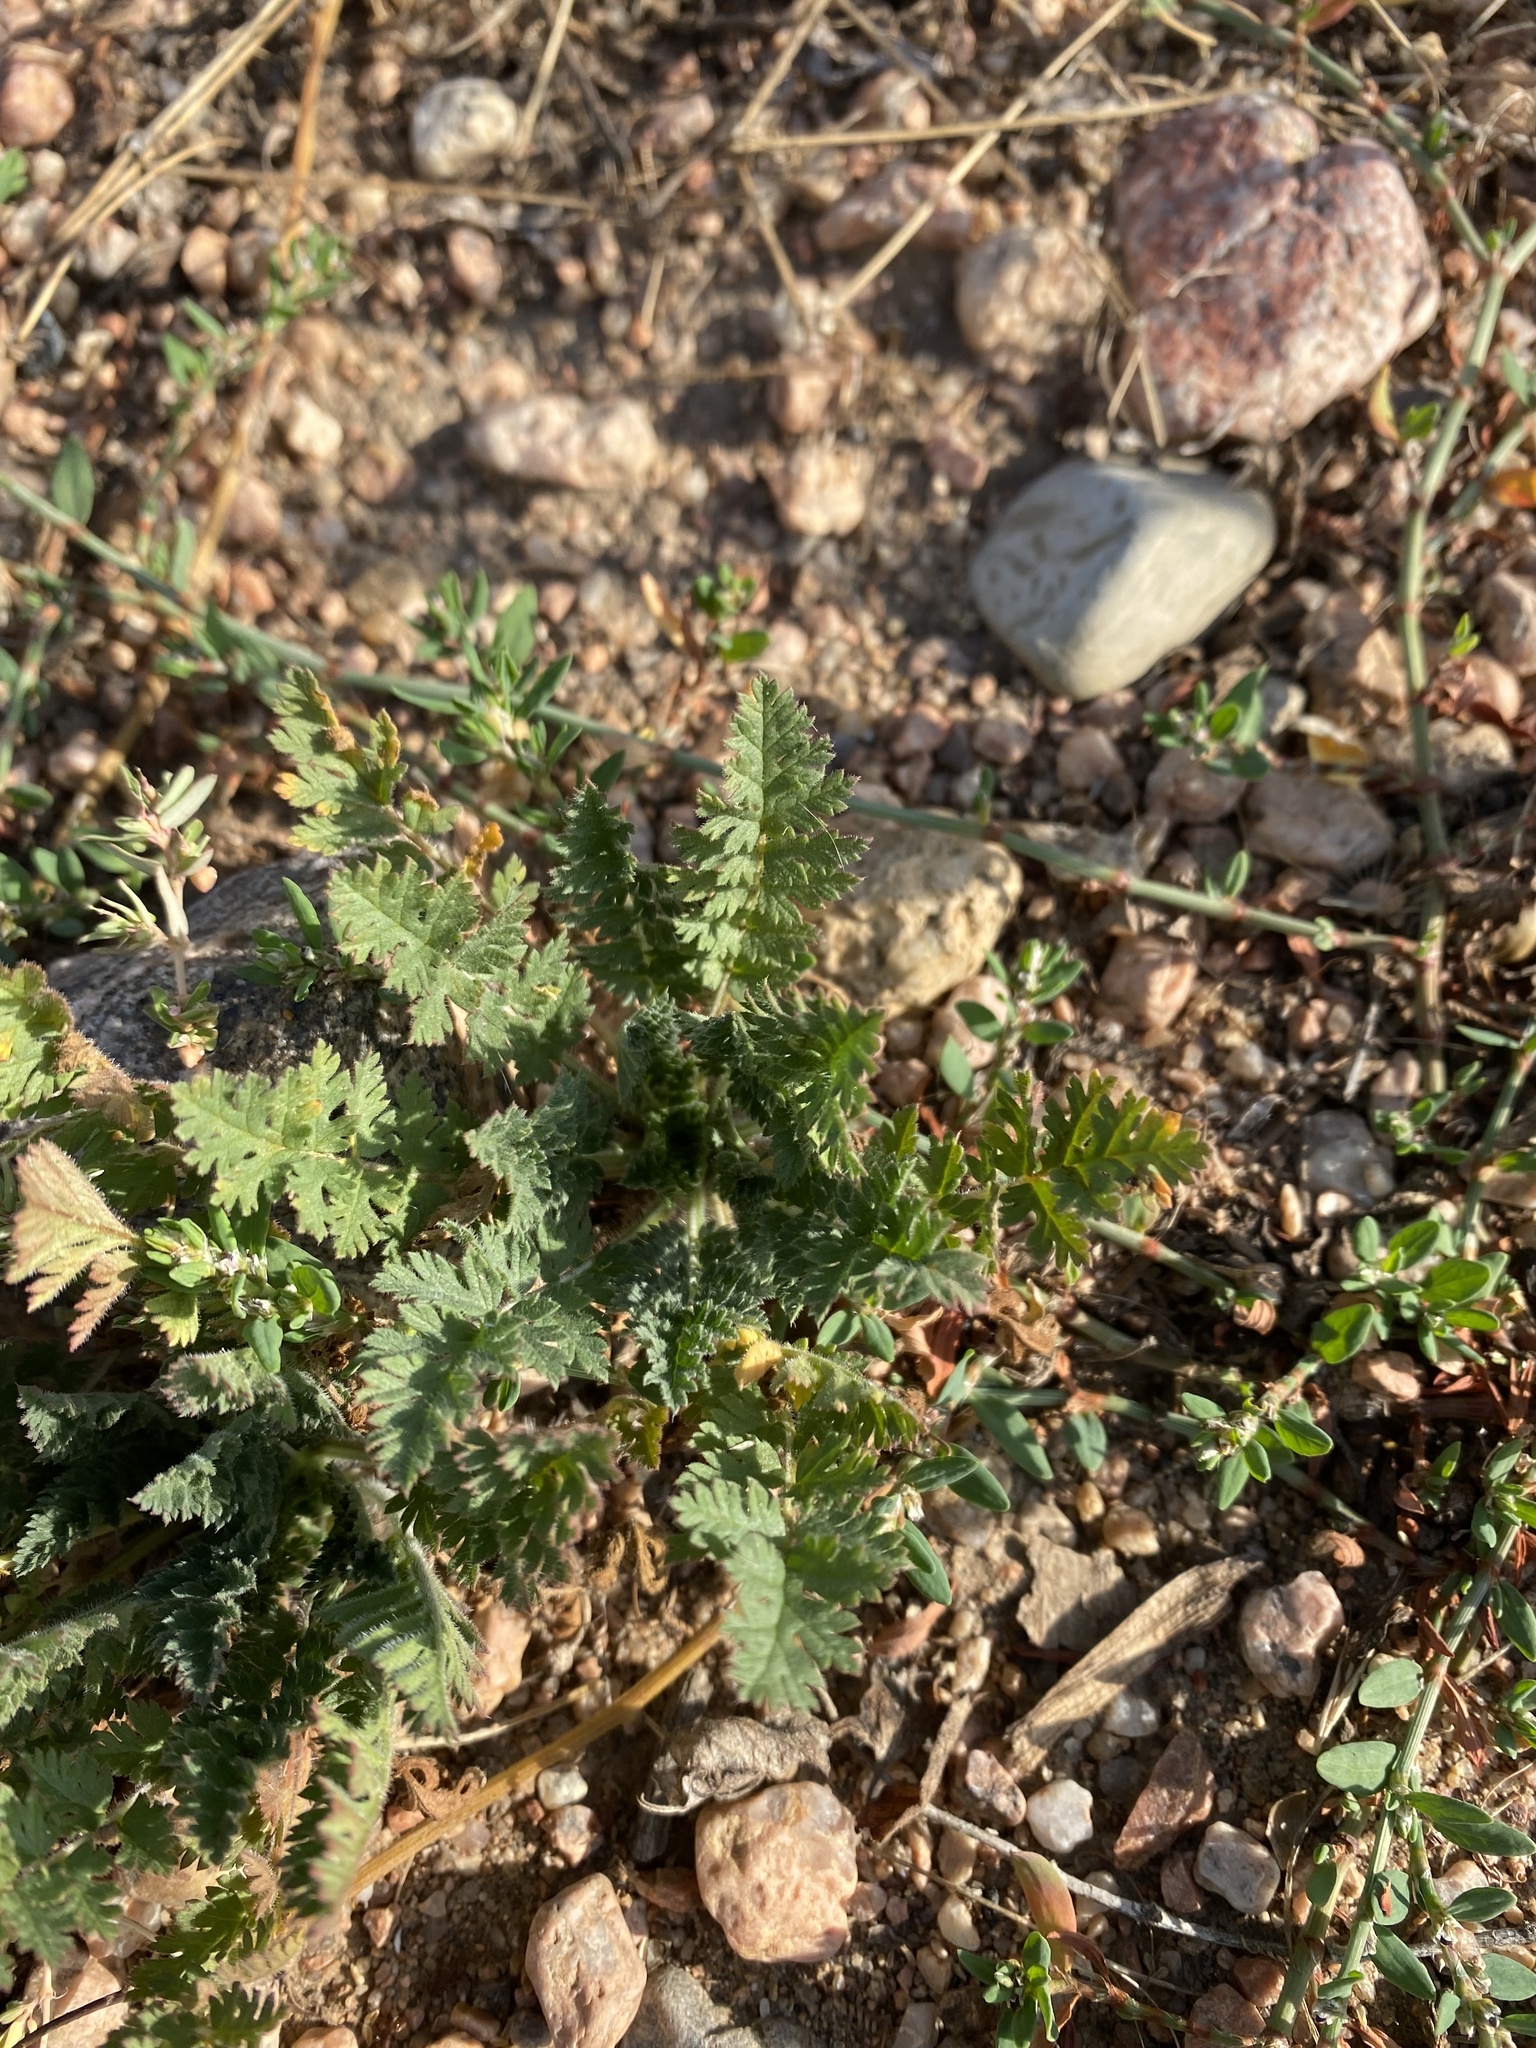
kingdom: Plantae
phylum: Tracheophyta
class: Magnoliopsida
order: Geraniales
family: Geraniaceae
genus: Erodium
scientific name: Erodium cicutarium
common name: Common stork's-bill
